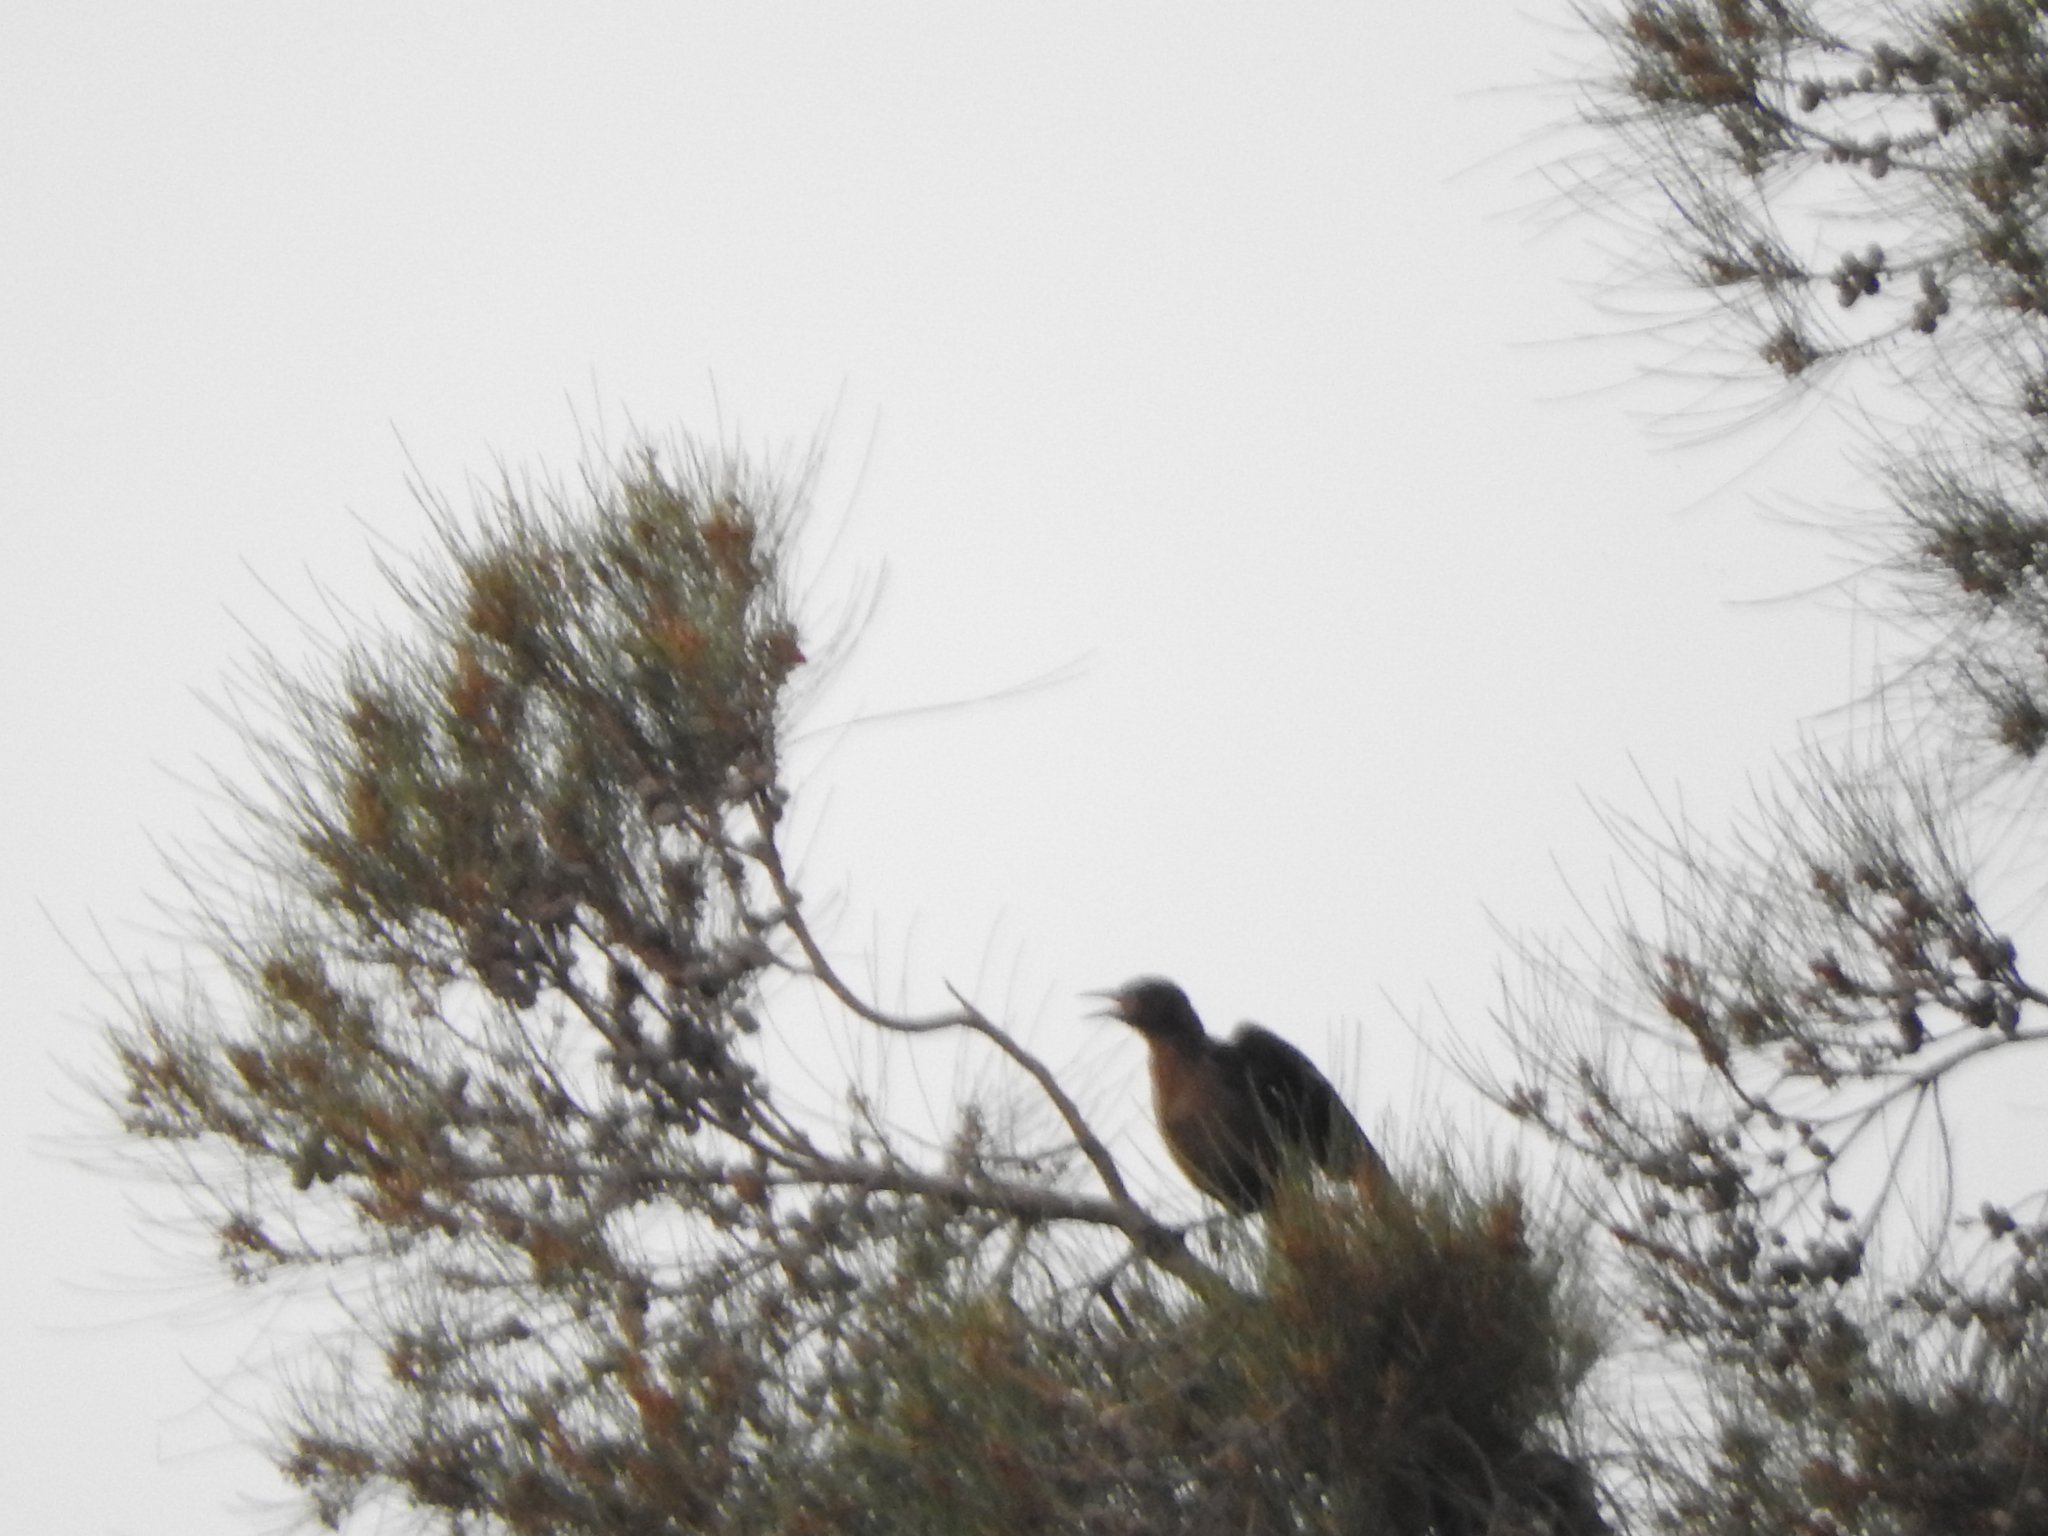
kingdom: Animalia
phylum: Chordata
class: Aves
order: Passeriformes
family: Icteridae
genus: Quiscalus
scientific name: Quiscalus mexicanus
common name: Great-tailed grackle
